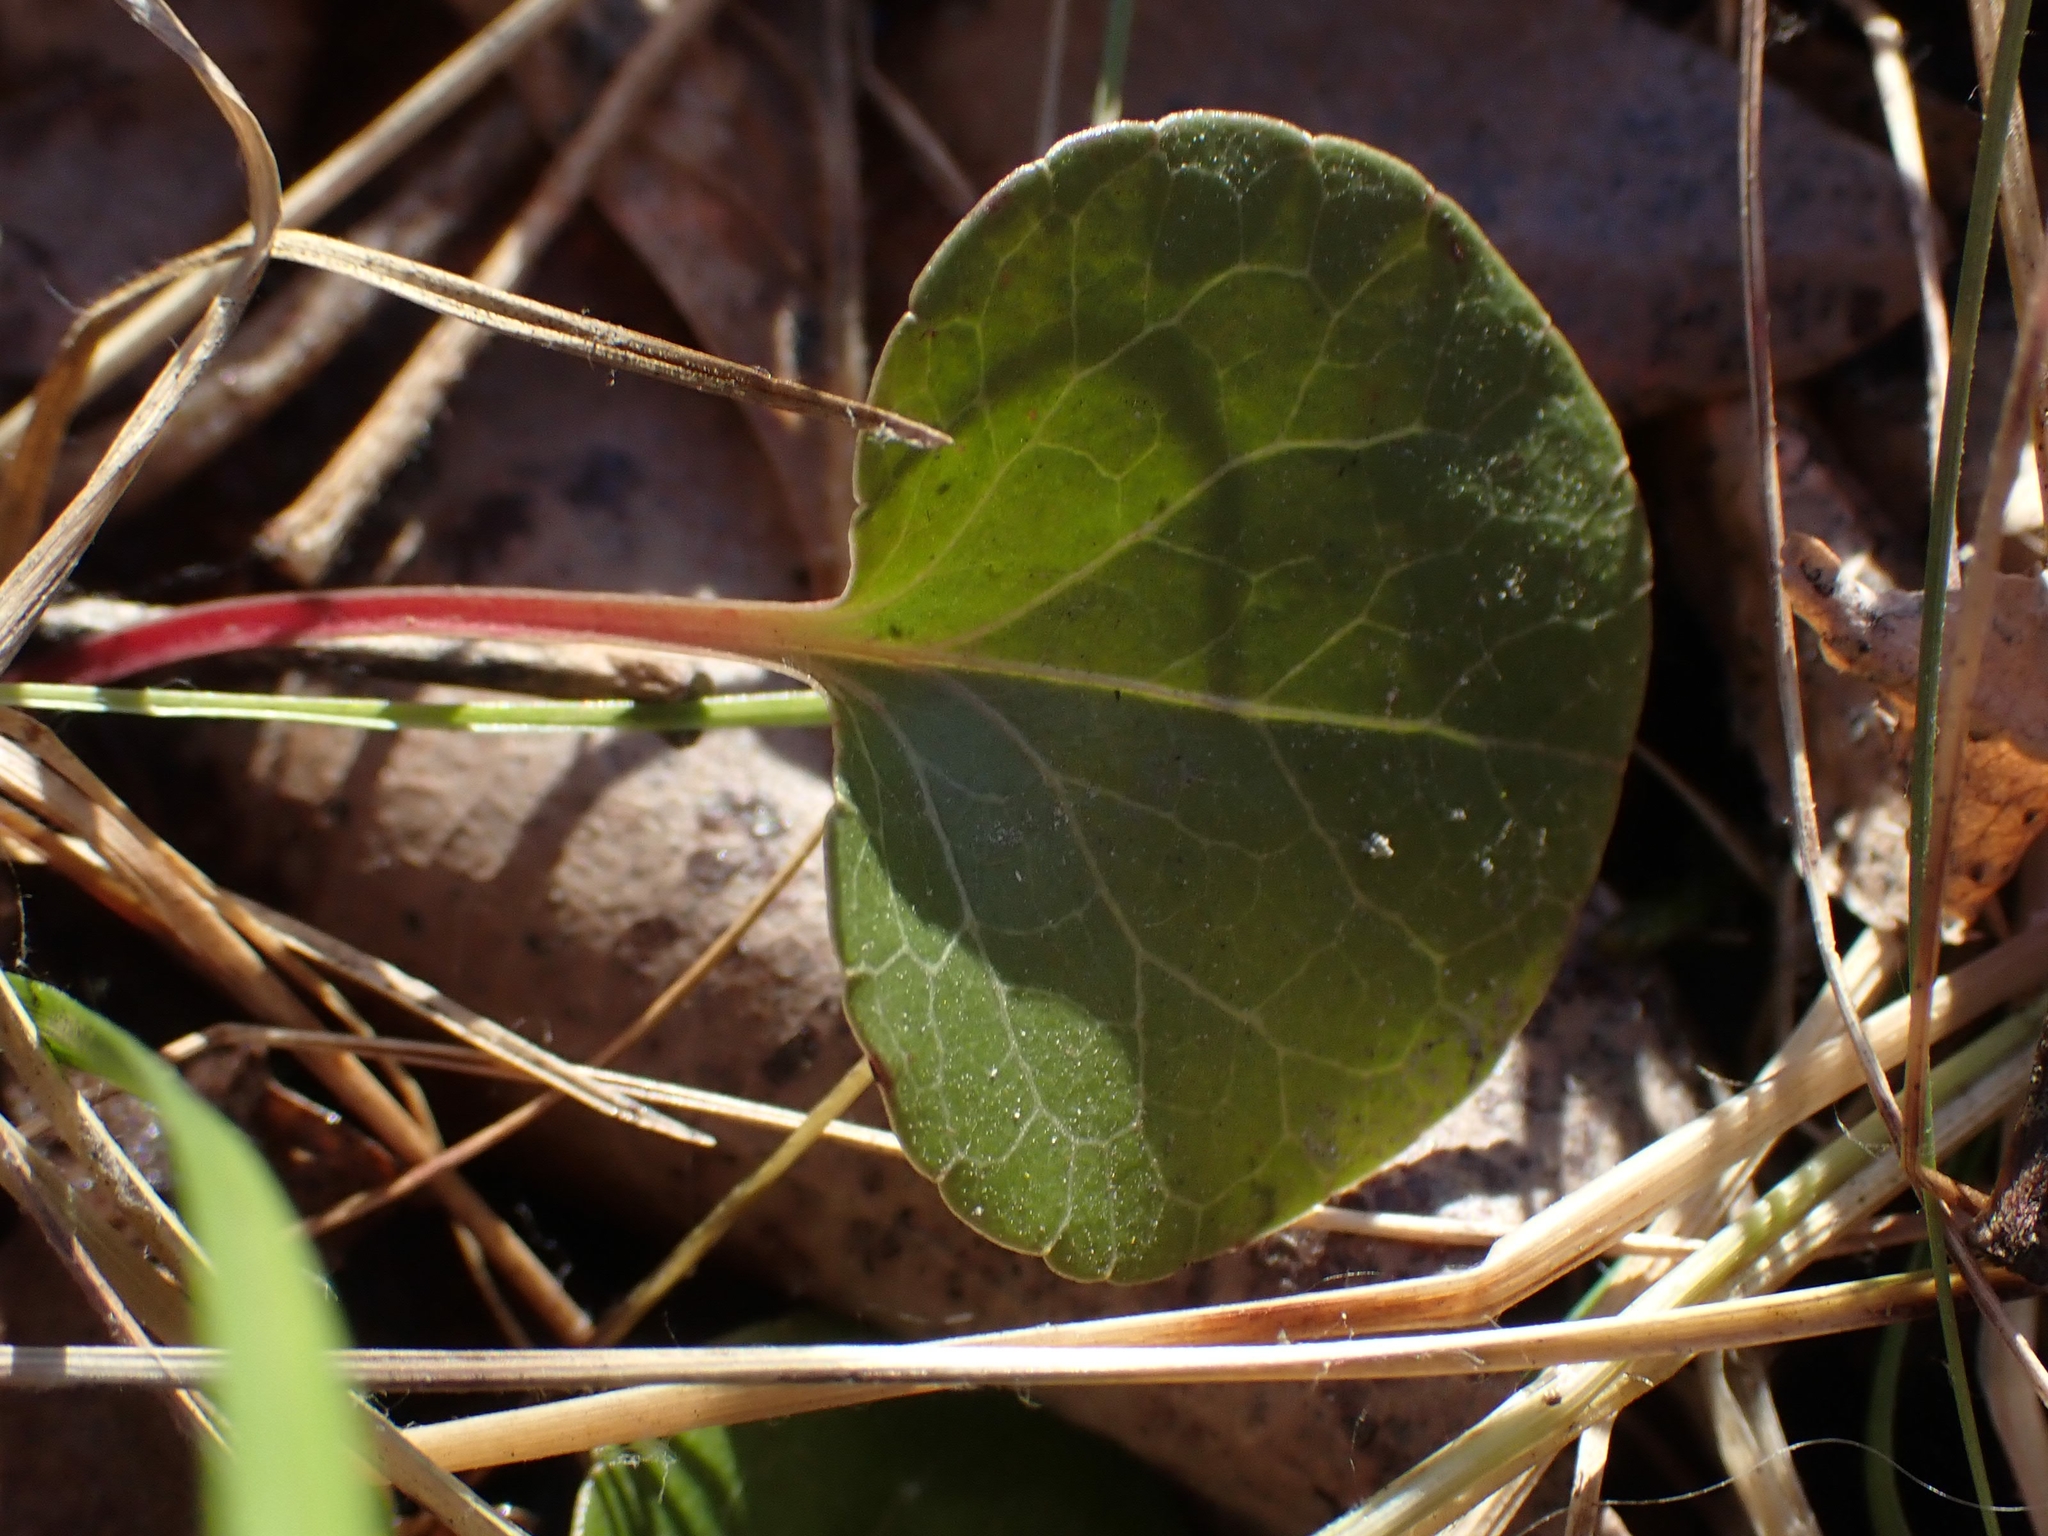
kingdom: Plantae
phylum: Tracheophyta
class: Magnoliopsida
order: Ericales
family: Ericaceae
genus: Pyrola
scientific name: Pyrola asarifolia
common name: Bog wintergreen
